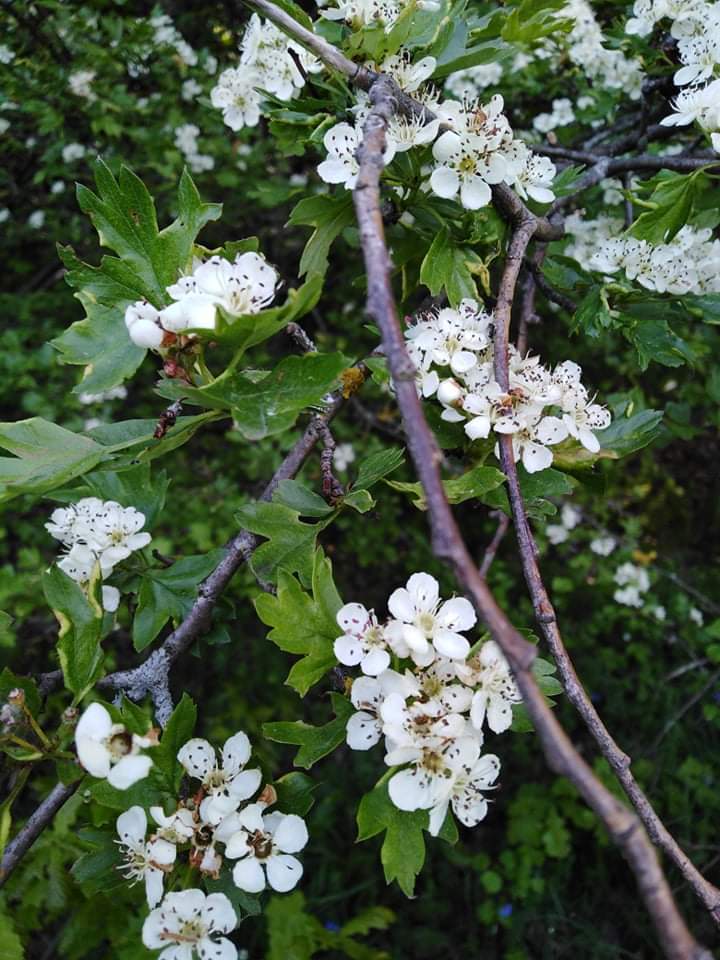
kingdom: Plantae
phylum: Tracheophyta
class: Magnoliopsida
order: Rosales
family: Rosaceae
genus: Crataegus
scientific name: Crataegus monogyna
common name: Hawthorn
